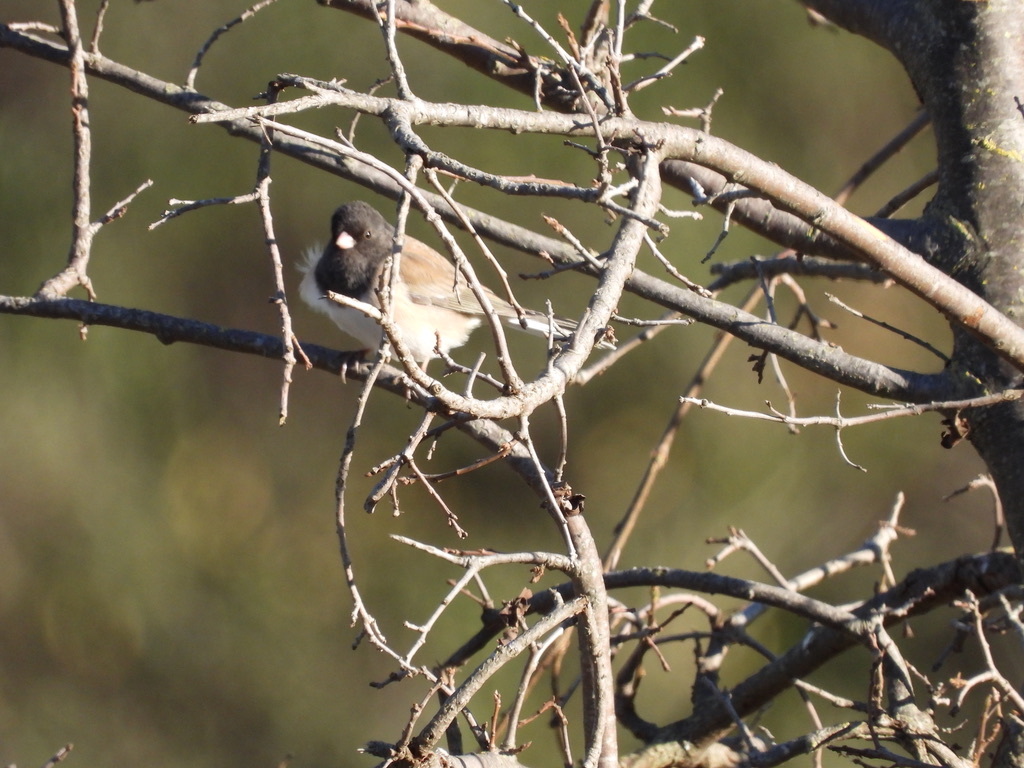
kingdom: Animalia
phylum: Chordata
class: Aves
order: Passeriformes
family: Passerellidae
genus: Junco
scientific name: Junco hyemalis
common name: Dark-eyed junco
